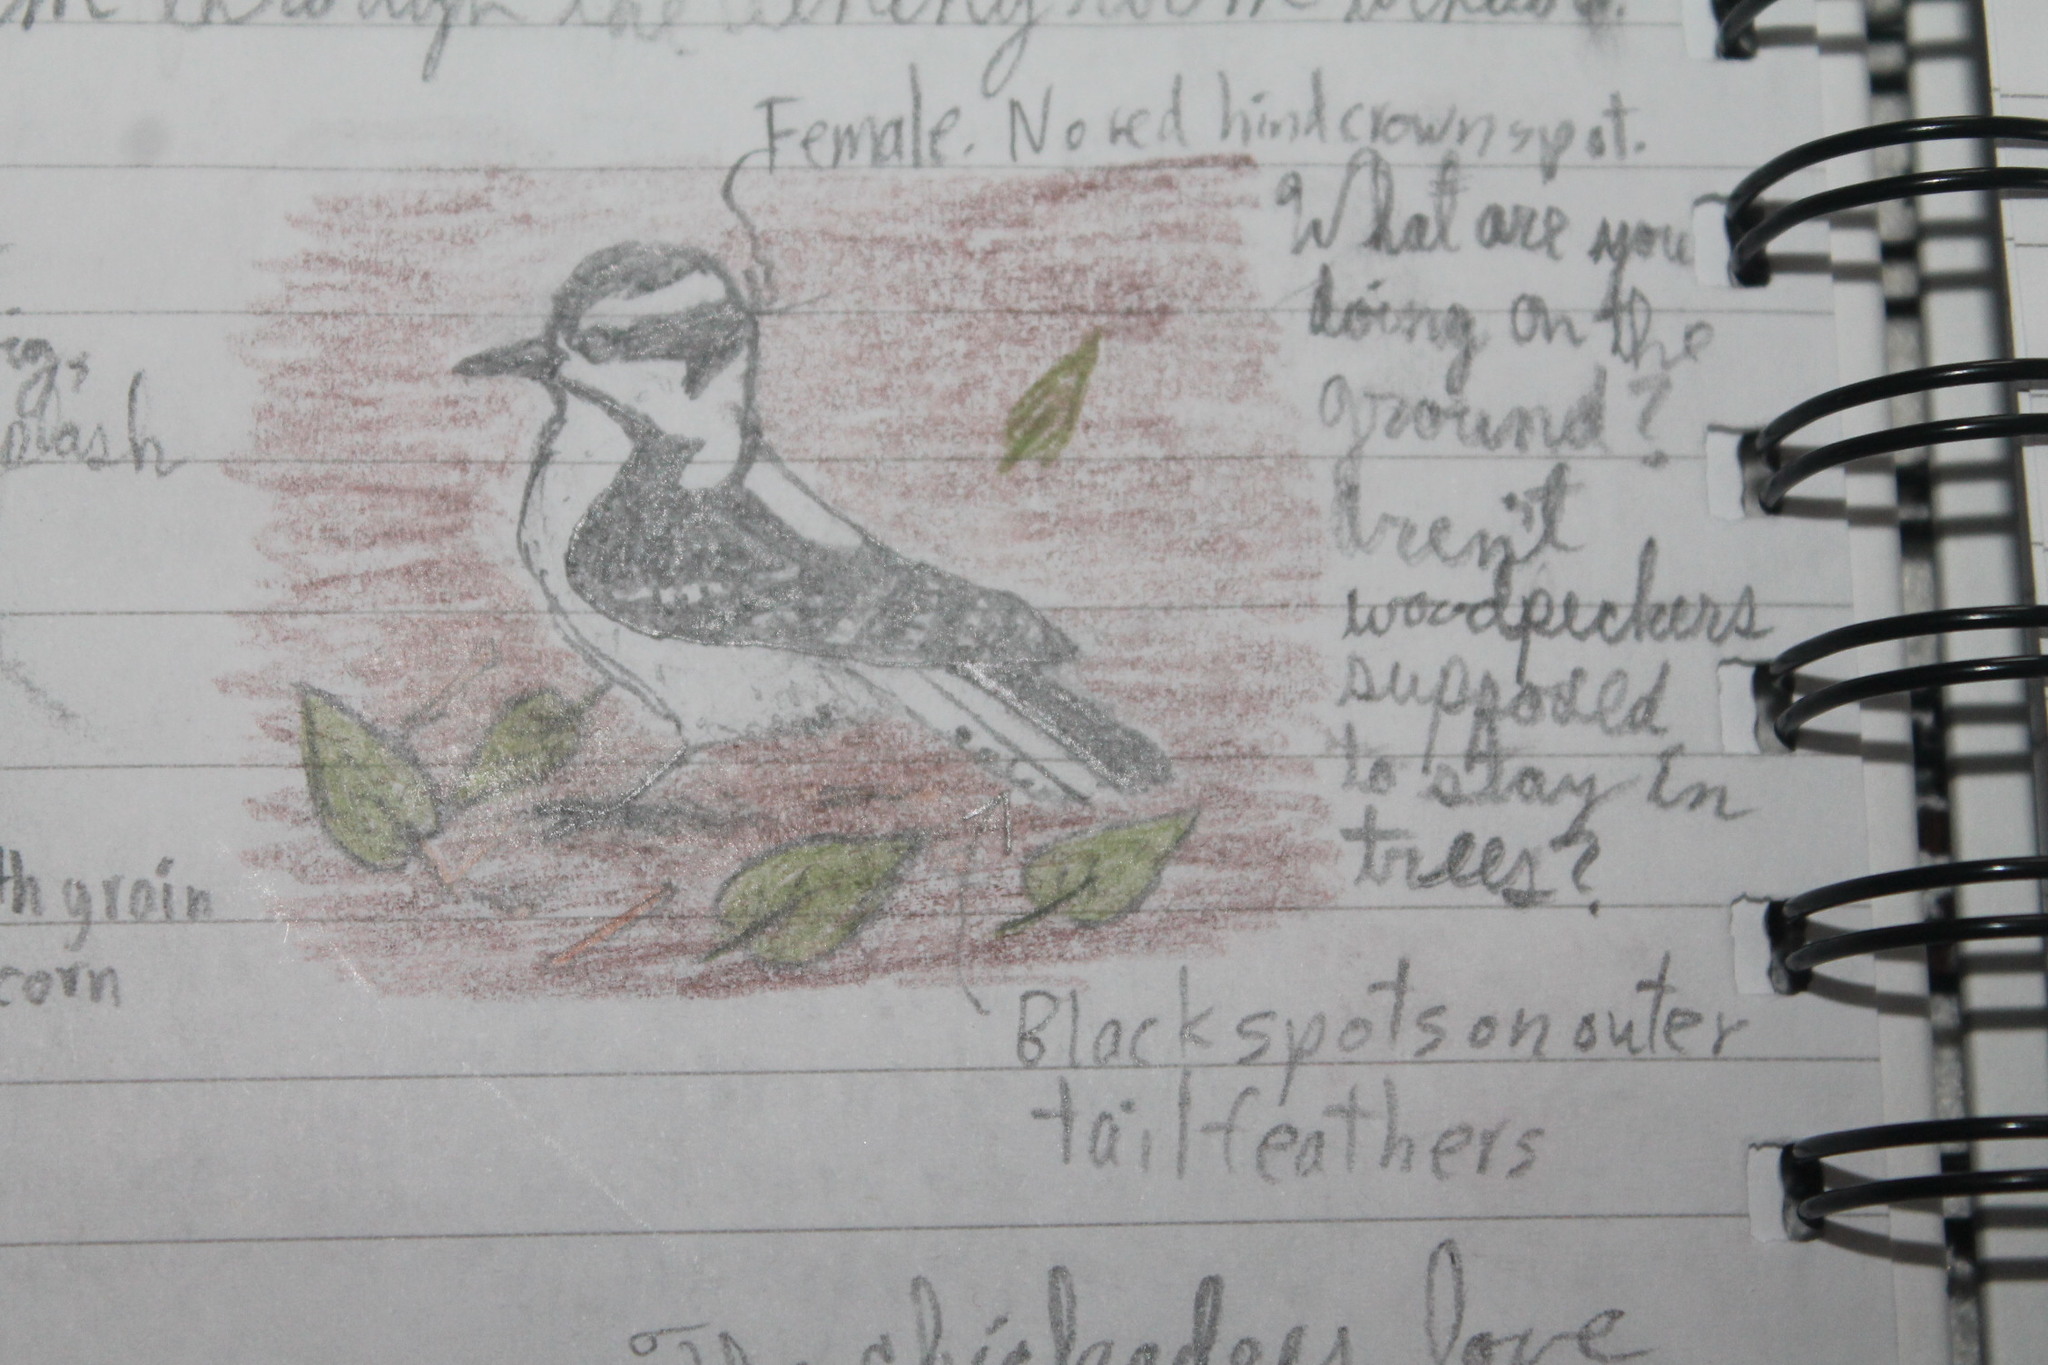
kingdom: Animalia
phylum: Chordata
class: Aves
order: Piciformes
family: Picidae
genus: Dryobates
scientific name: Dryobates pubescens
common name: Downy woodpecker
